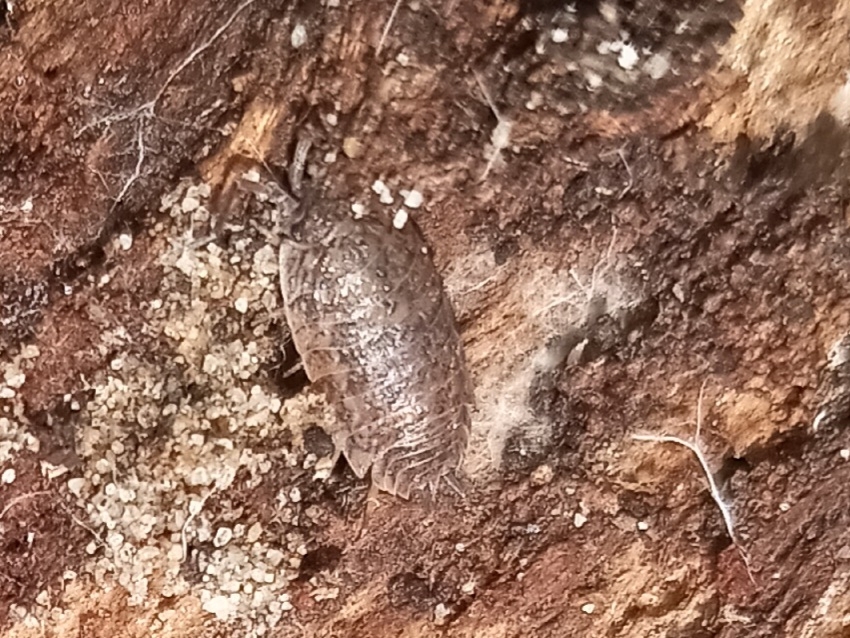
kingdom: Animalia
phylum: Arthropoda
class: Malacostraca
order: Isopoda
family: Trachelipodidae
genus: Trachelipus
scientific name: Trachelipus rathkii
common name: Isopod
